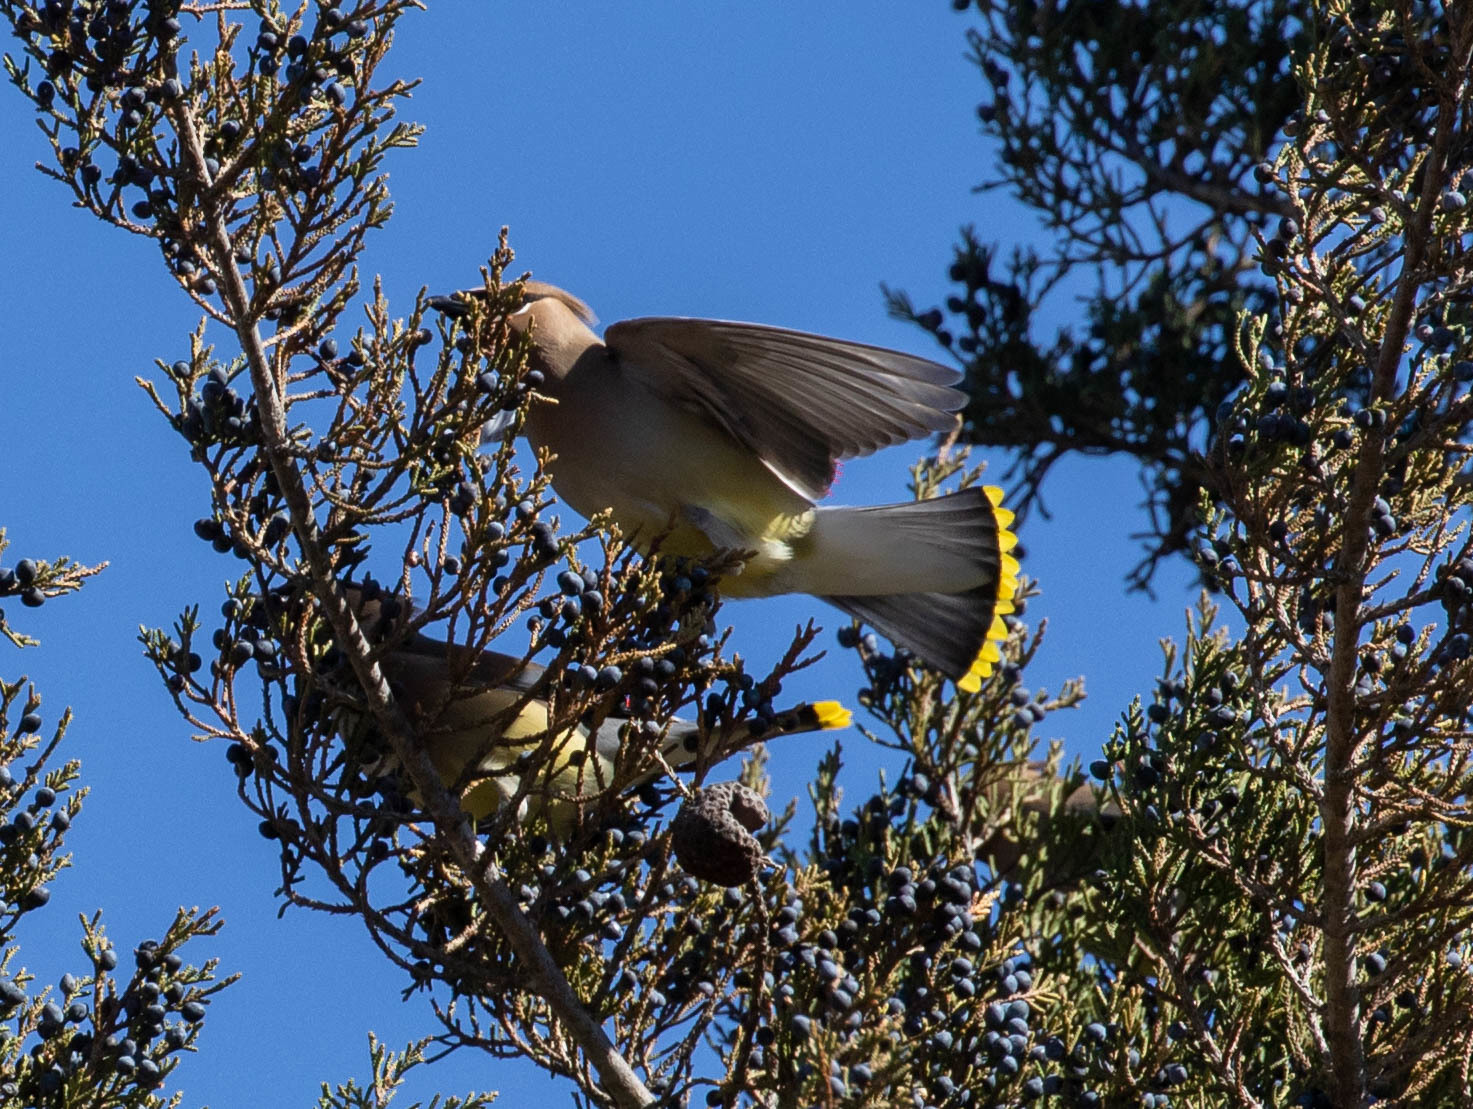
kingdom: Animalia
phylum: Chordata
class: Aves
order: Passeriformes
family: Bombycillidae
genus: Bombycilla
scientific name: Bombycilla cedrorum
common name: Cedar waxwing
